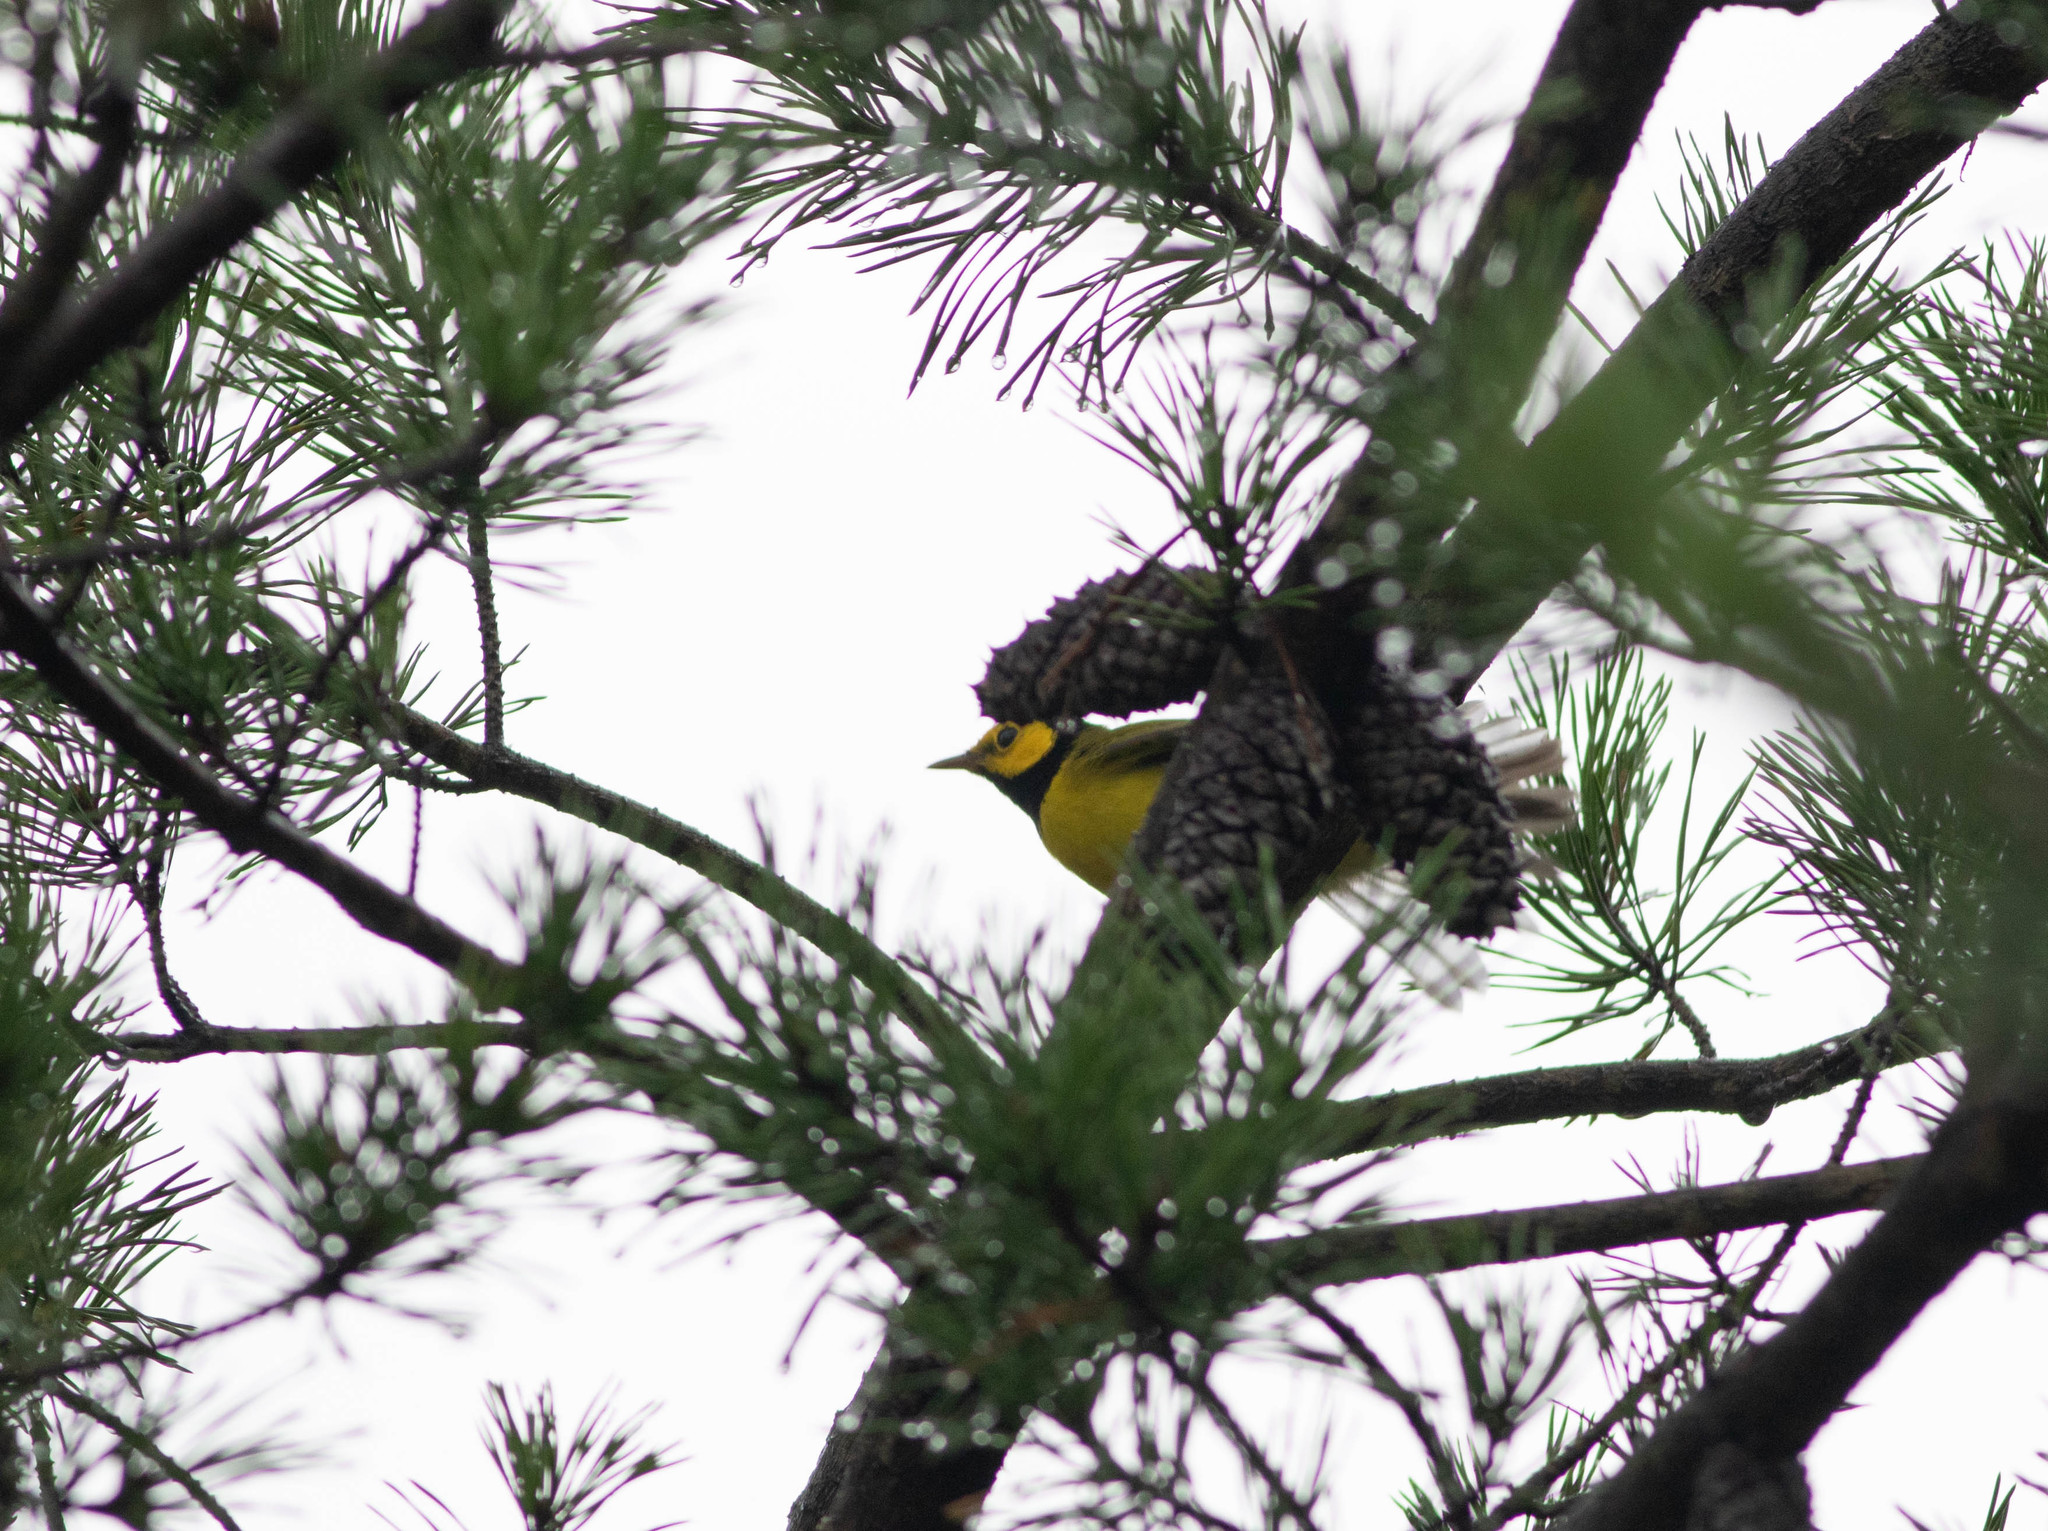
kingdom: Animalia
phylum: Chordata
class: Aves
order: Passeriformes
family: Parulidae
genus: Setophaga
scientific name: Setophaga citrina
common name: Hooded warbler
